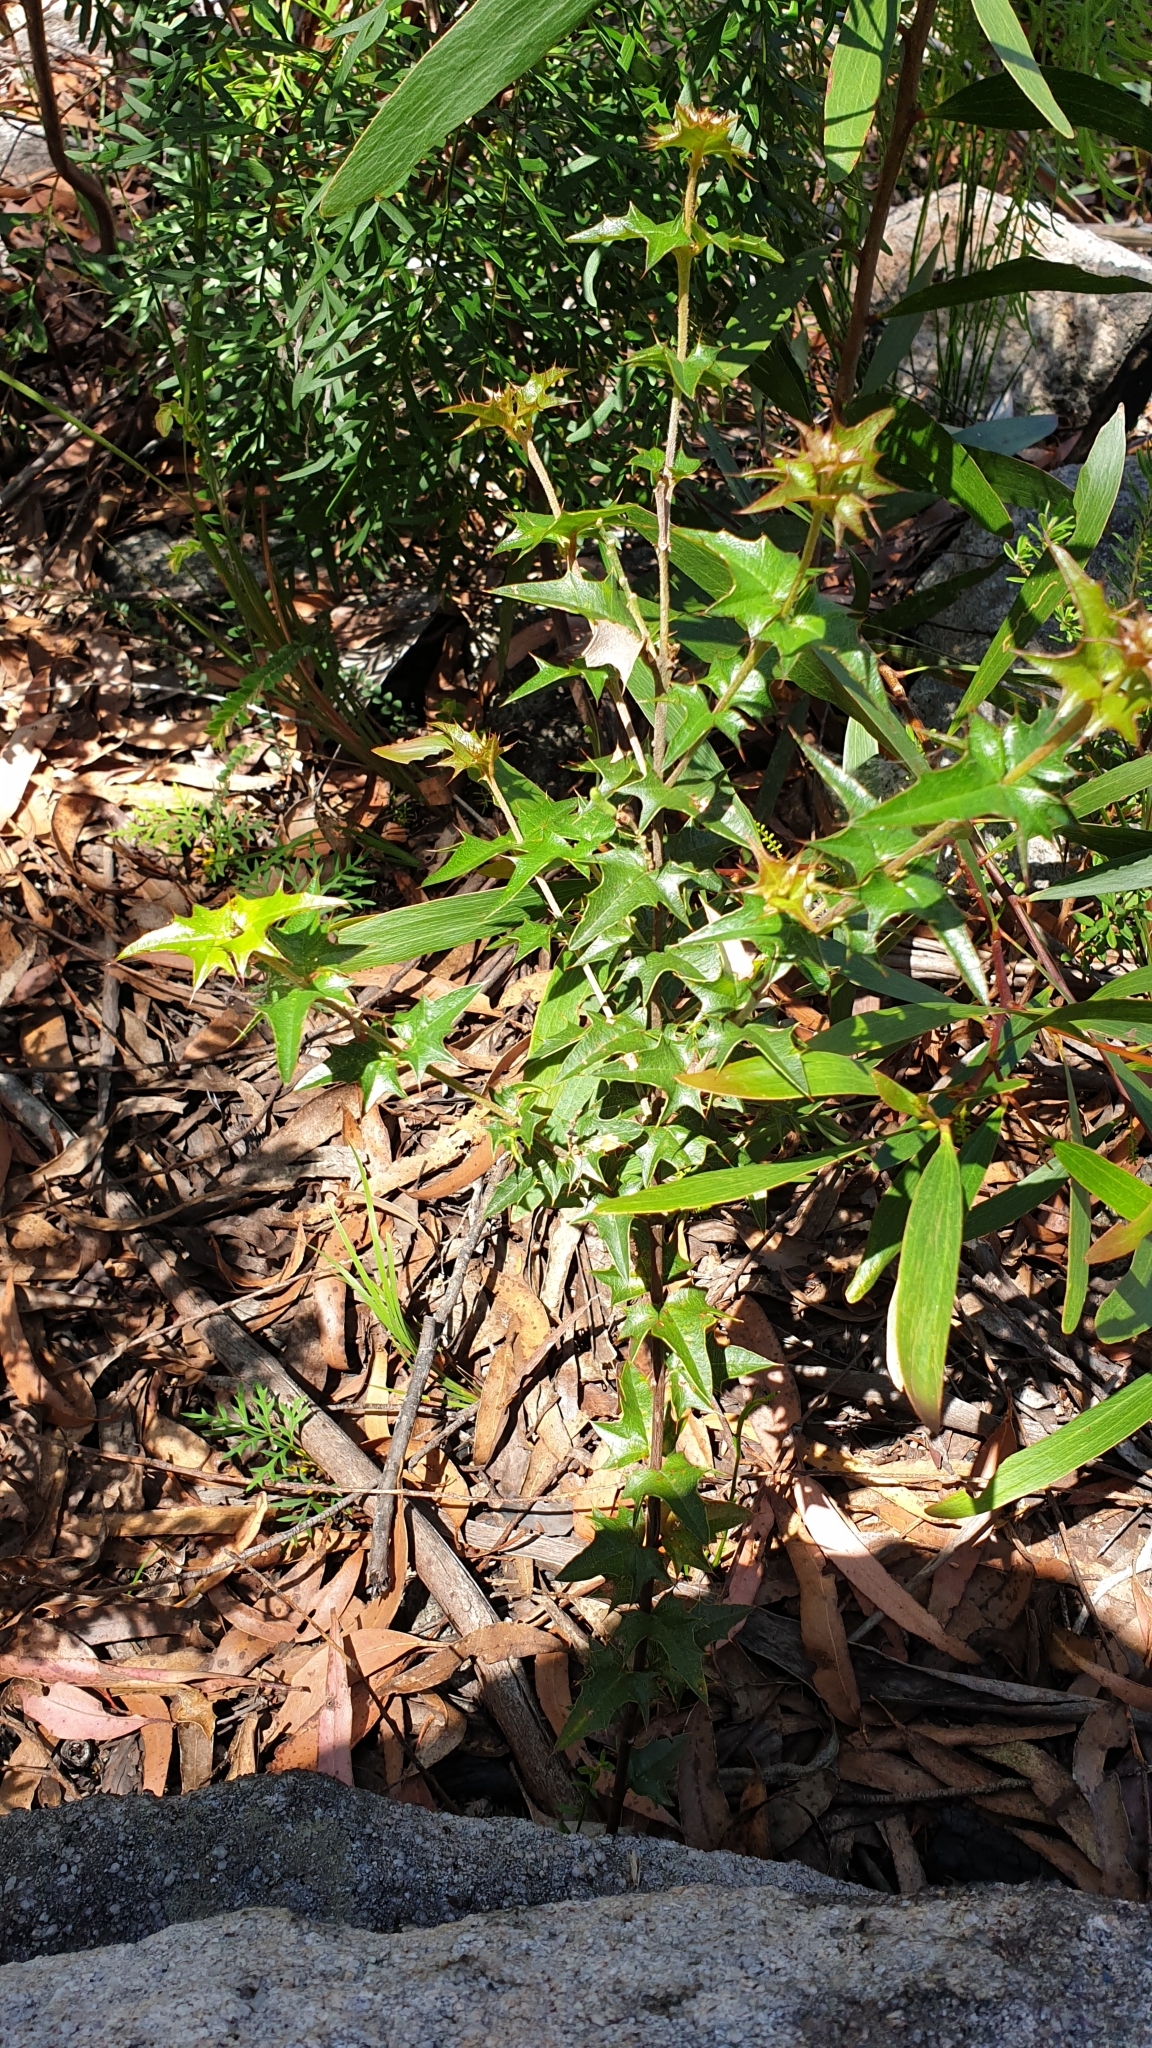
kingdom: Plantae
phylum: Tracheophyta
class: Magnoliopsida
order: Fabales
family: Fabaceae
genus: Podolobium
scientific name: Podolobium ilicifolium
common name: Native holly
